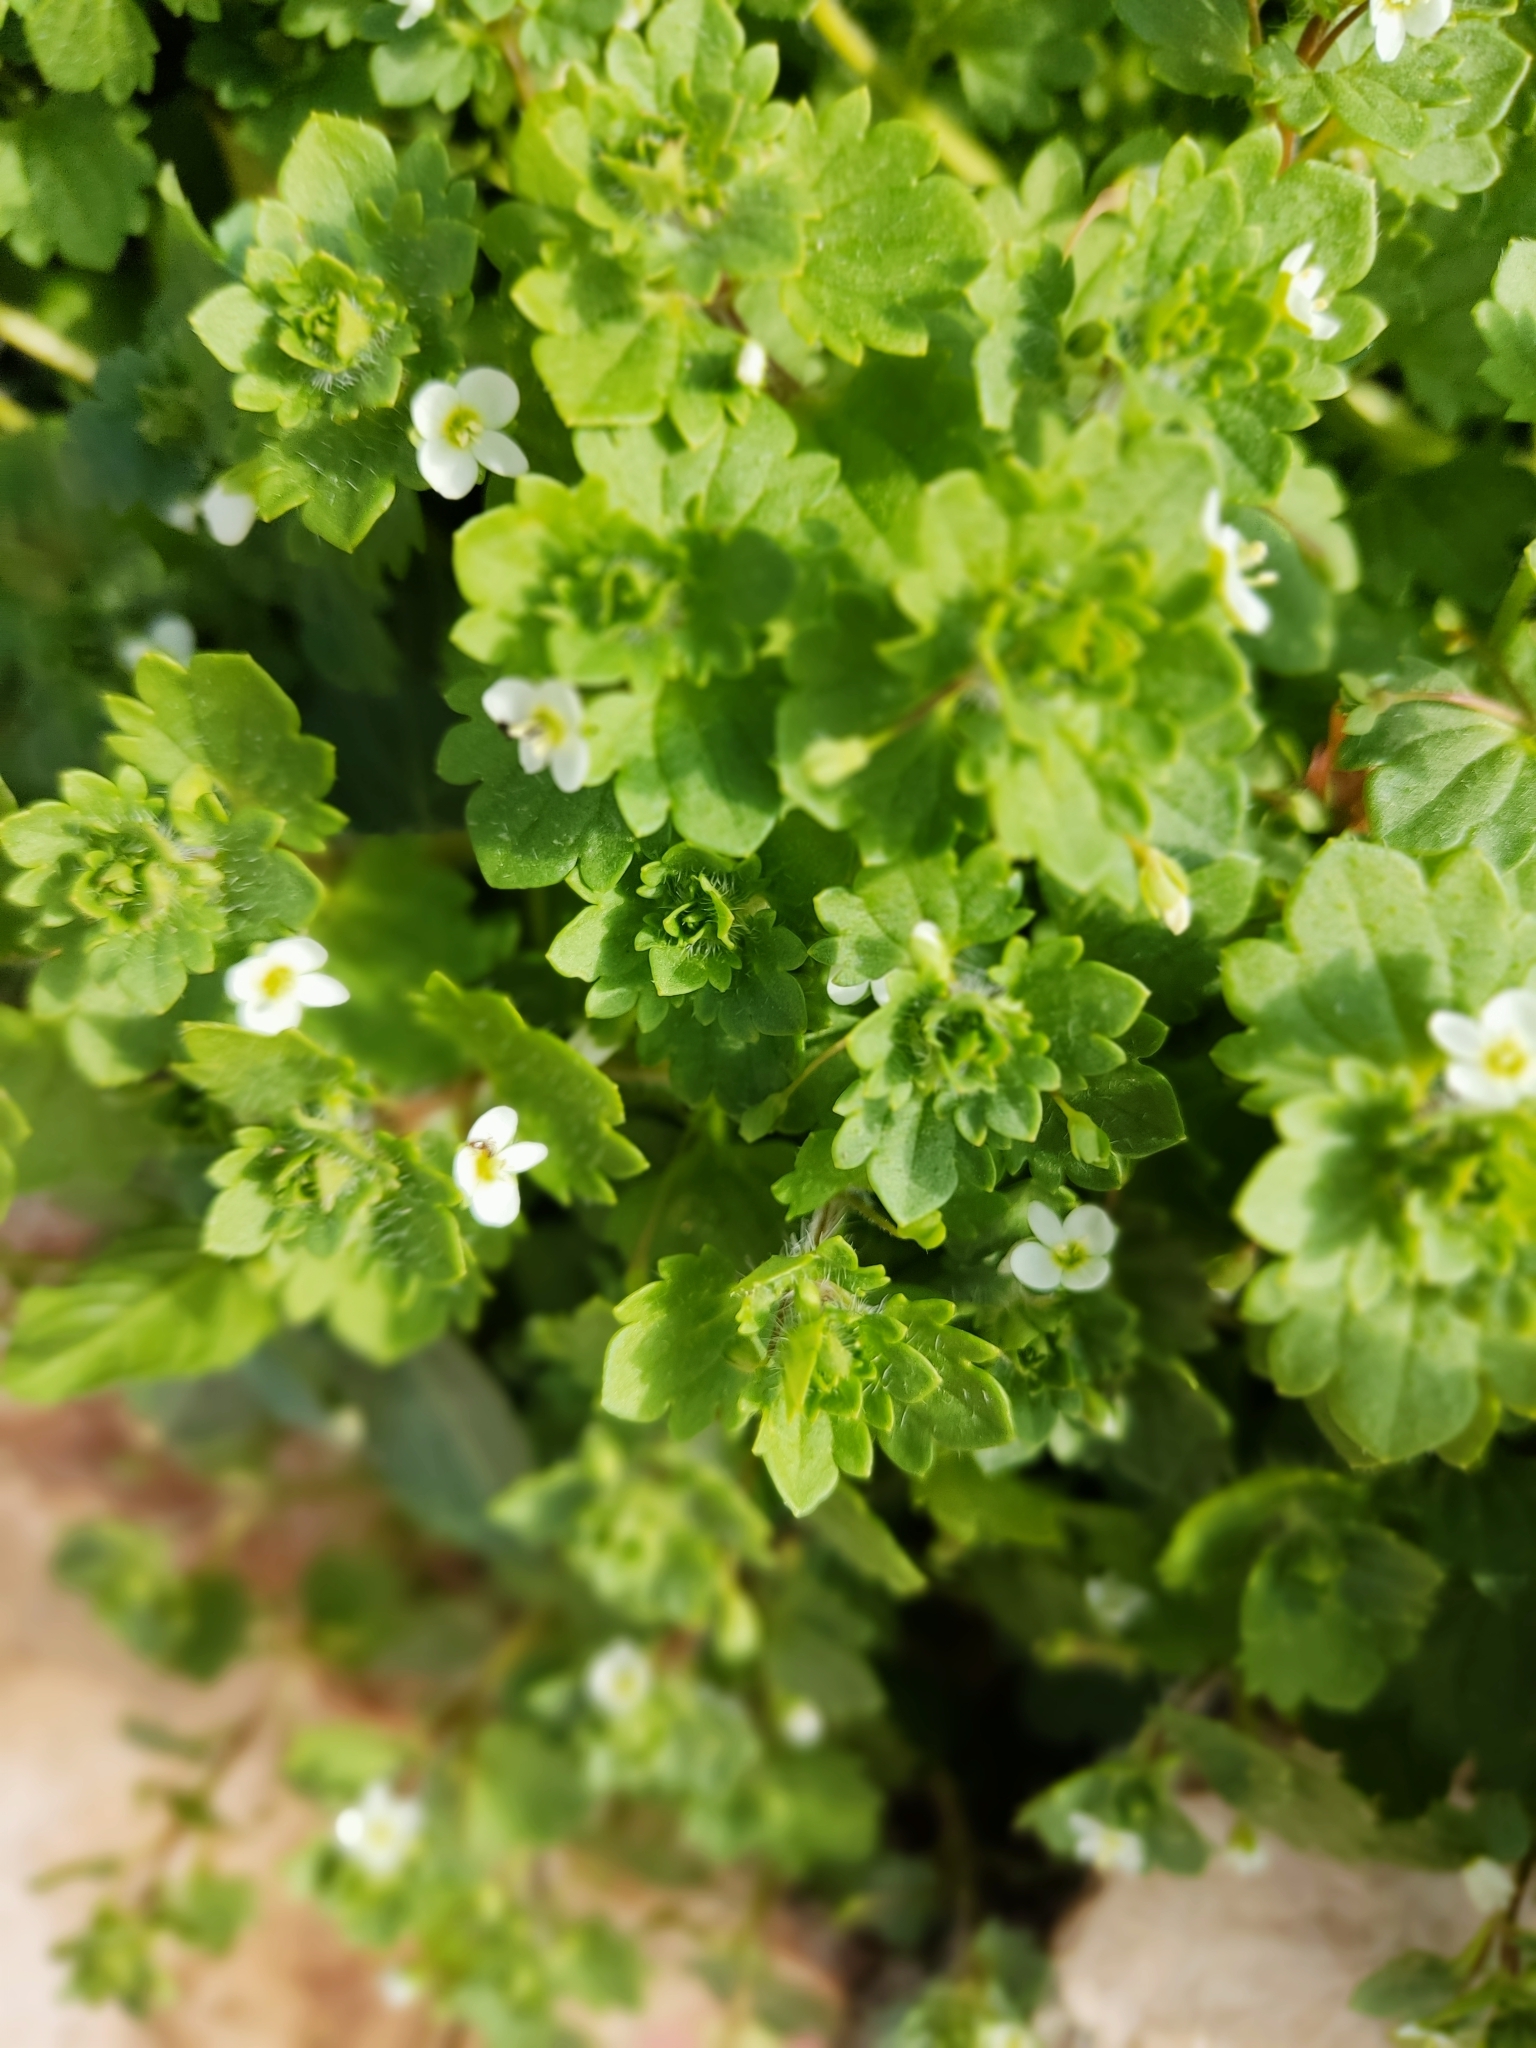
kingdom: Plantae
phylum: Tracheophyta
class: Magnoliopsida
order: Lamiales
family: Plantaginaceae
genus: Veronica
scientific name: Veronica cymbalaria
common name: Pale speedwell
